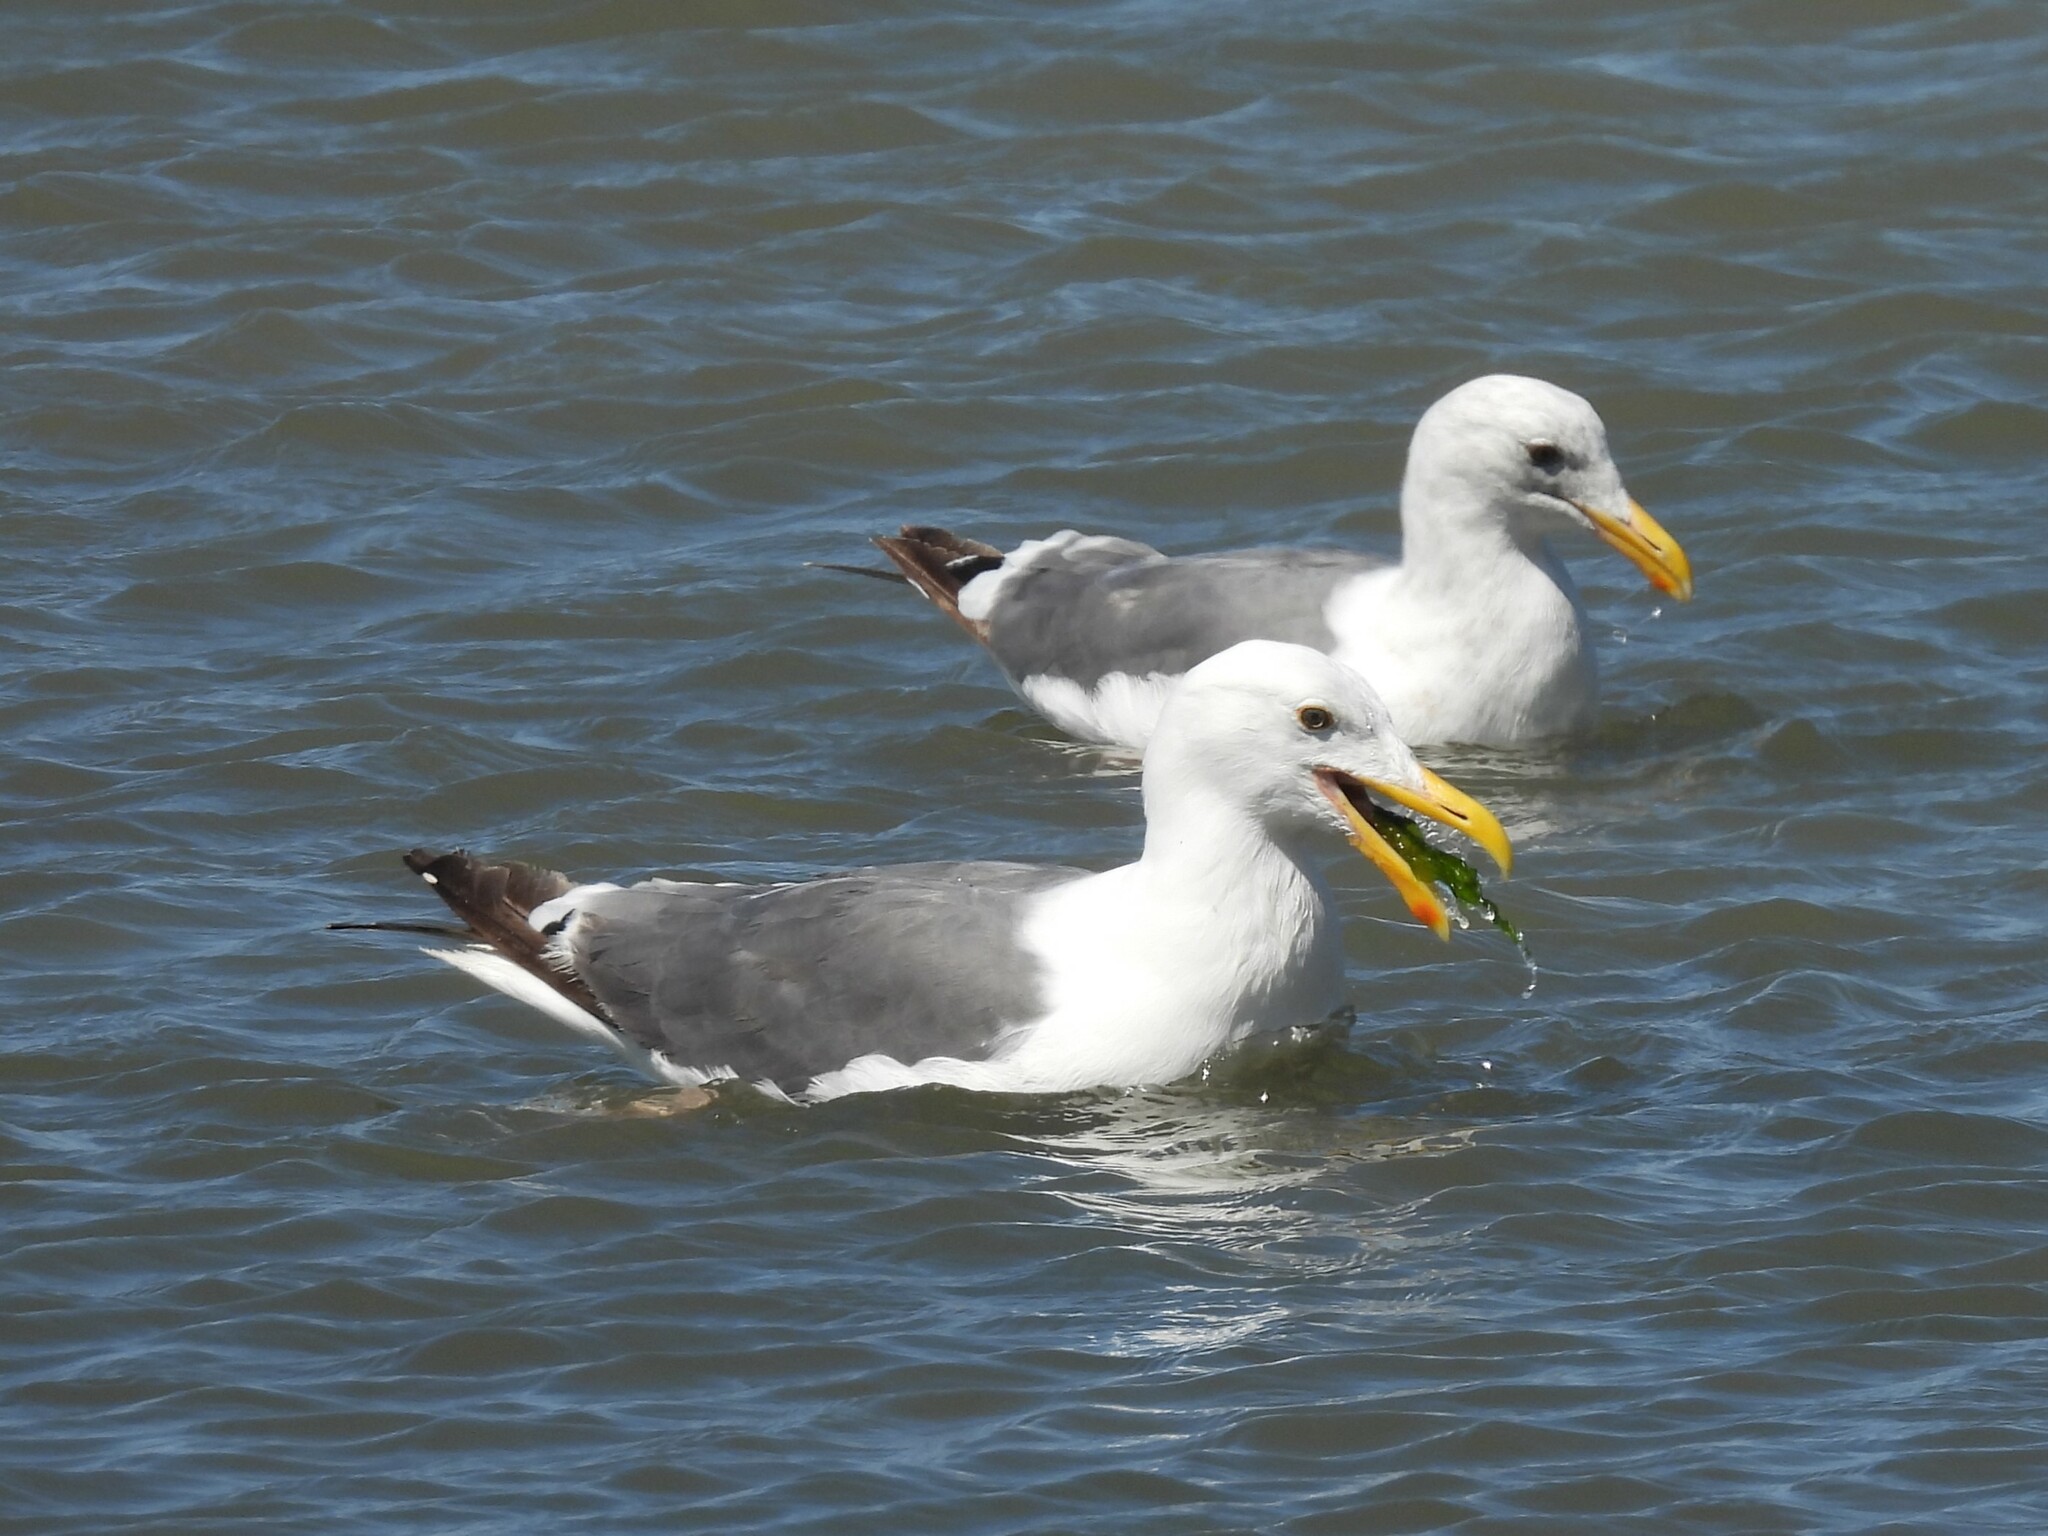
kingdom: Animalia
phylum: Chordata
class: Aves
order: Charadriiformes
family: Laridae
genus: Larus
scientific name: Larus occidentalis
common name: Western gull
